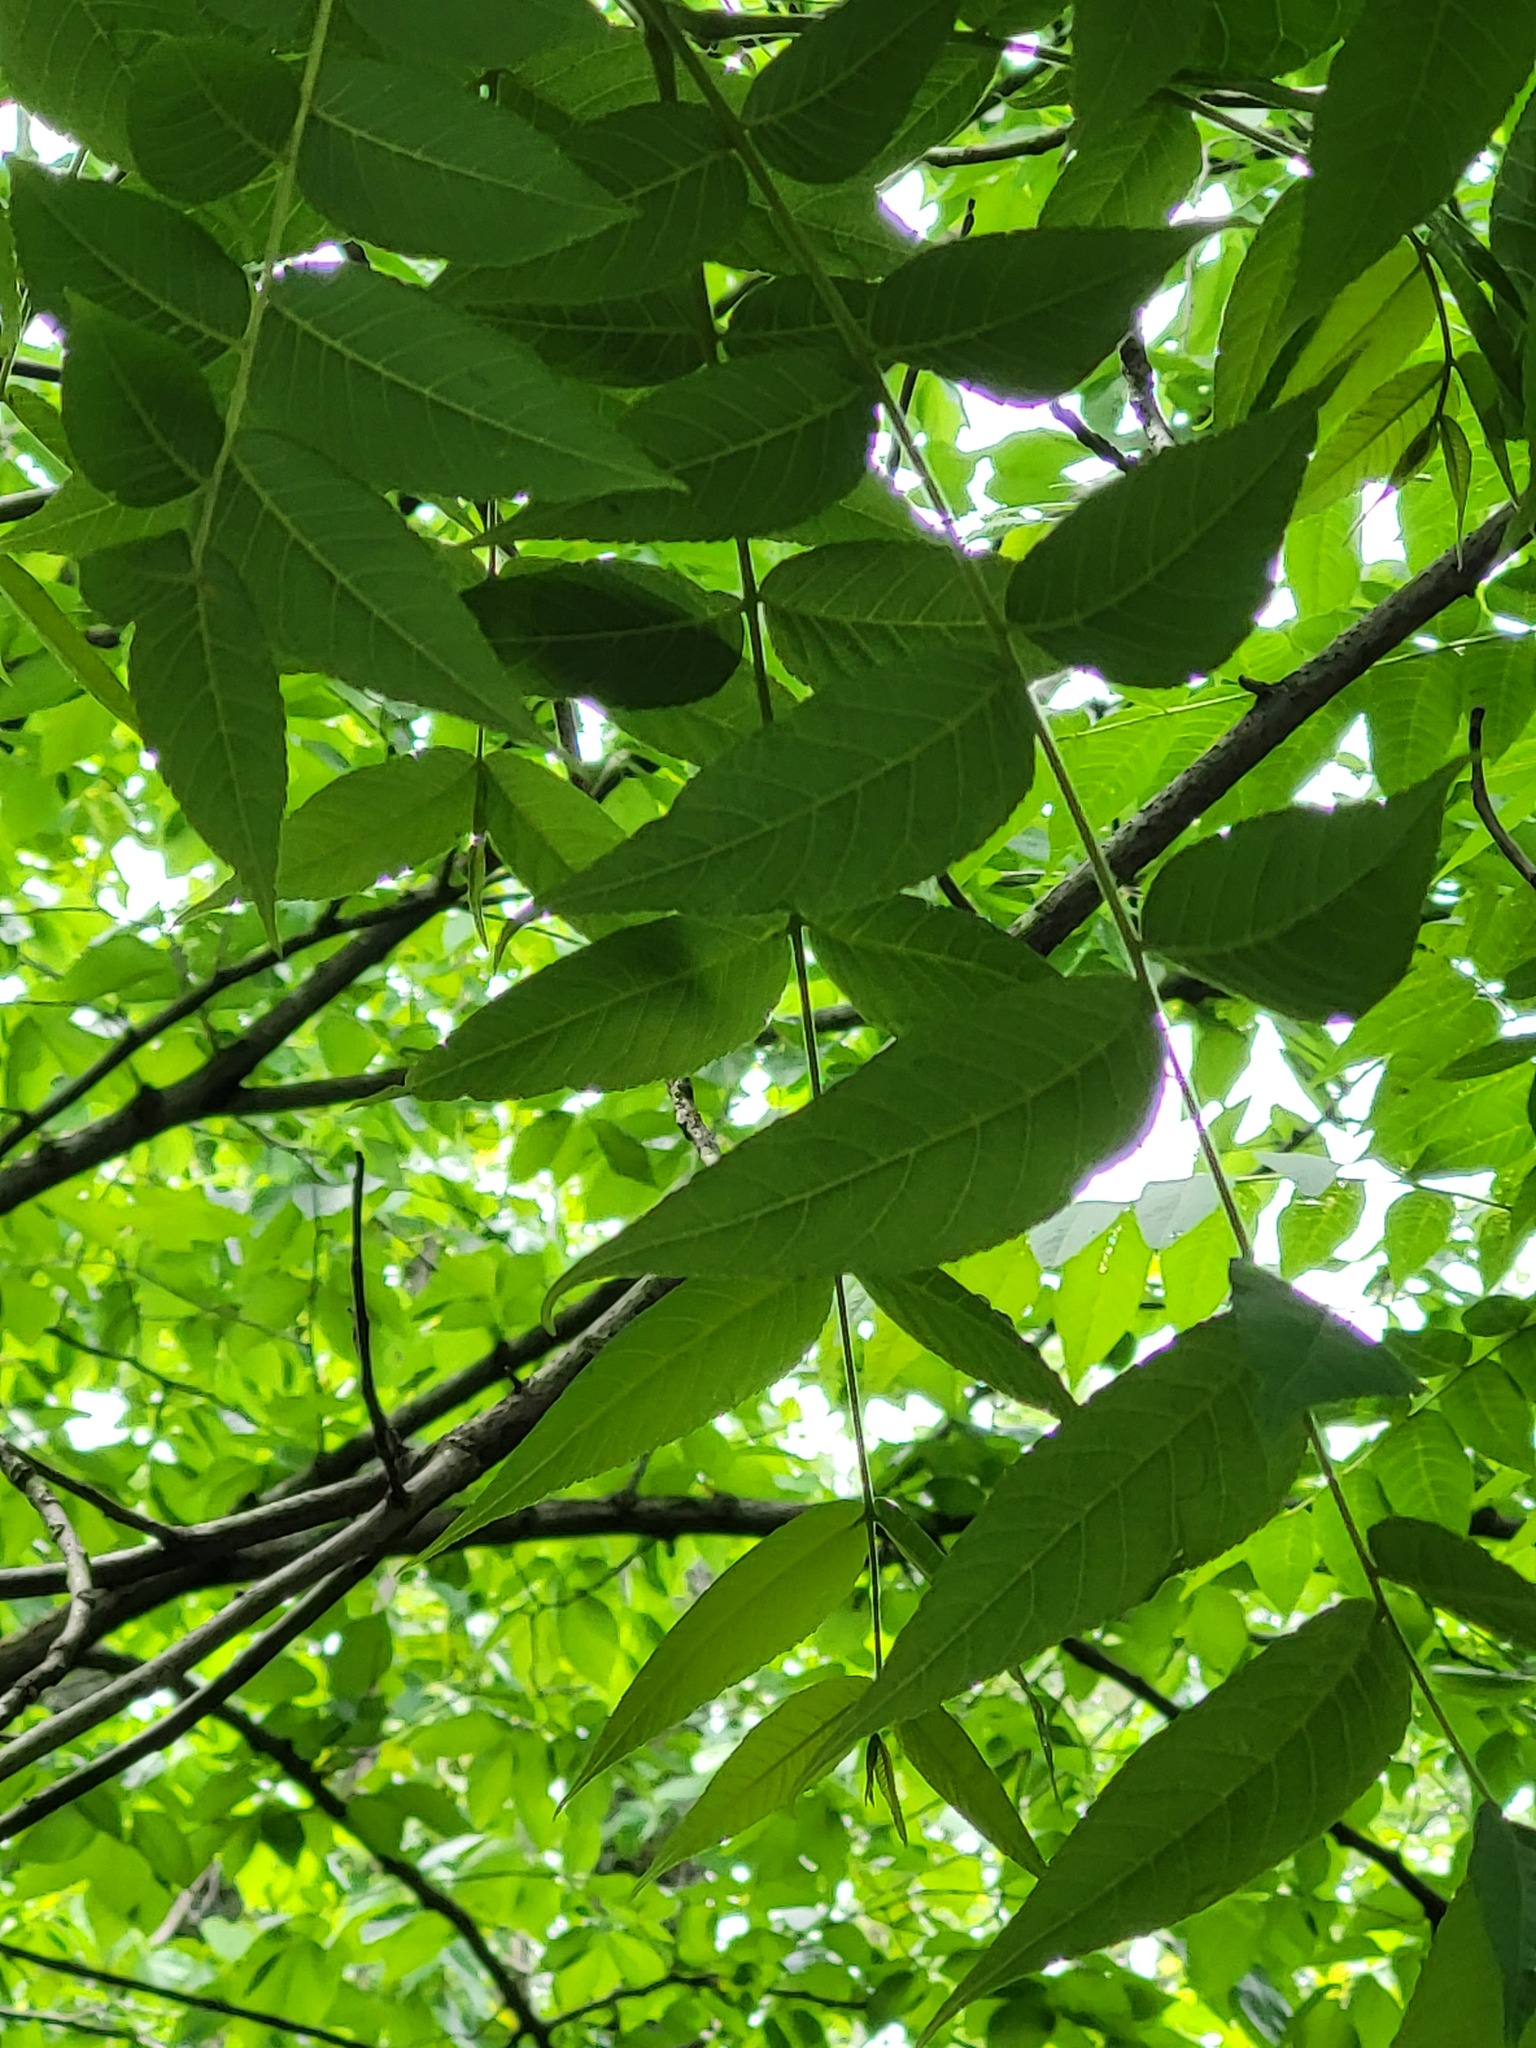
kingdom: Plantae
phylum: Tracheophyta
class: Magnoliopsida
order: Fagales
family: Juglandaceae
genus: Juglans
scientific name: Juglans nigra
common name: Black walnut
